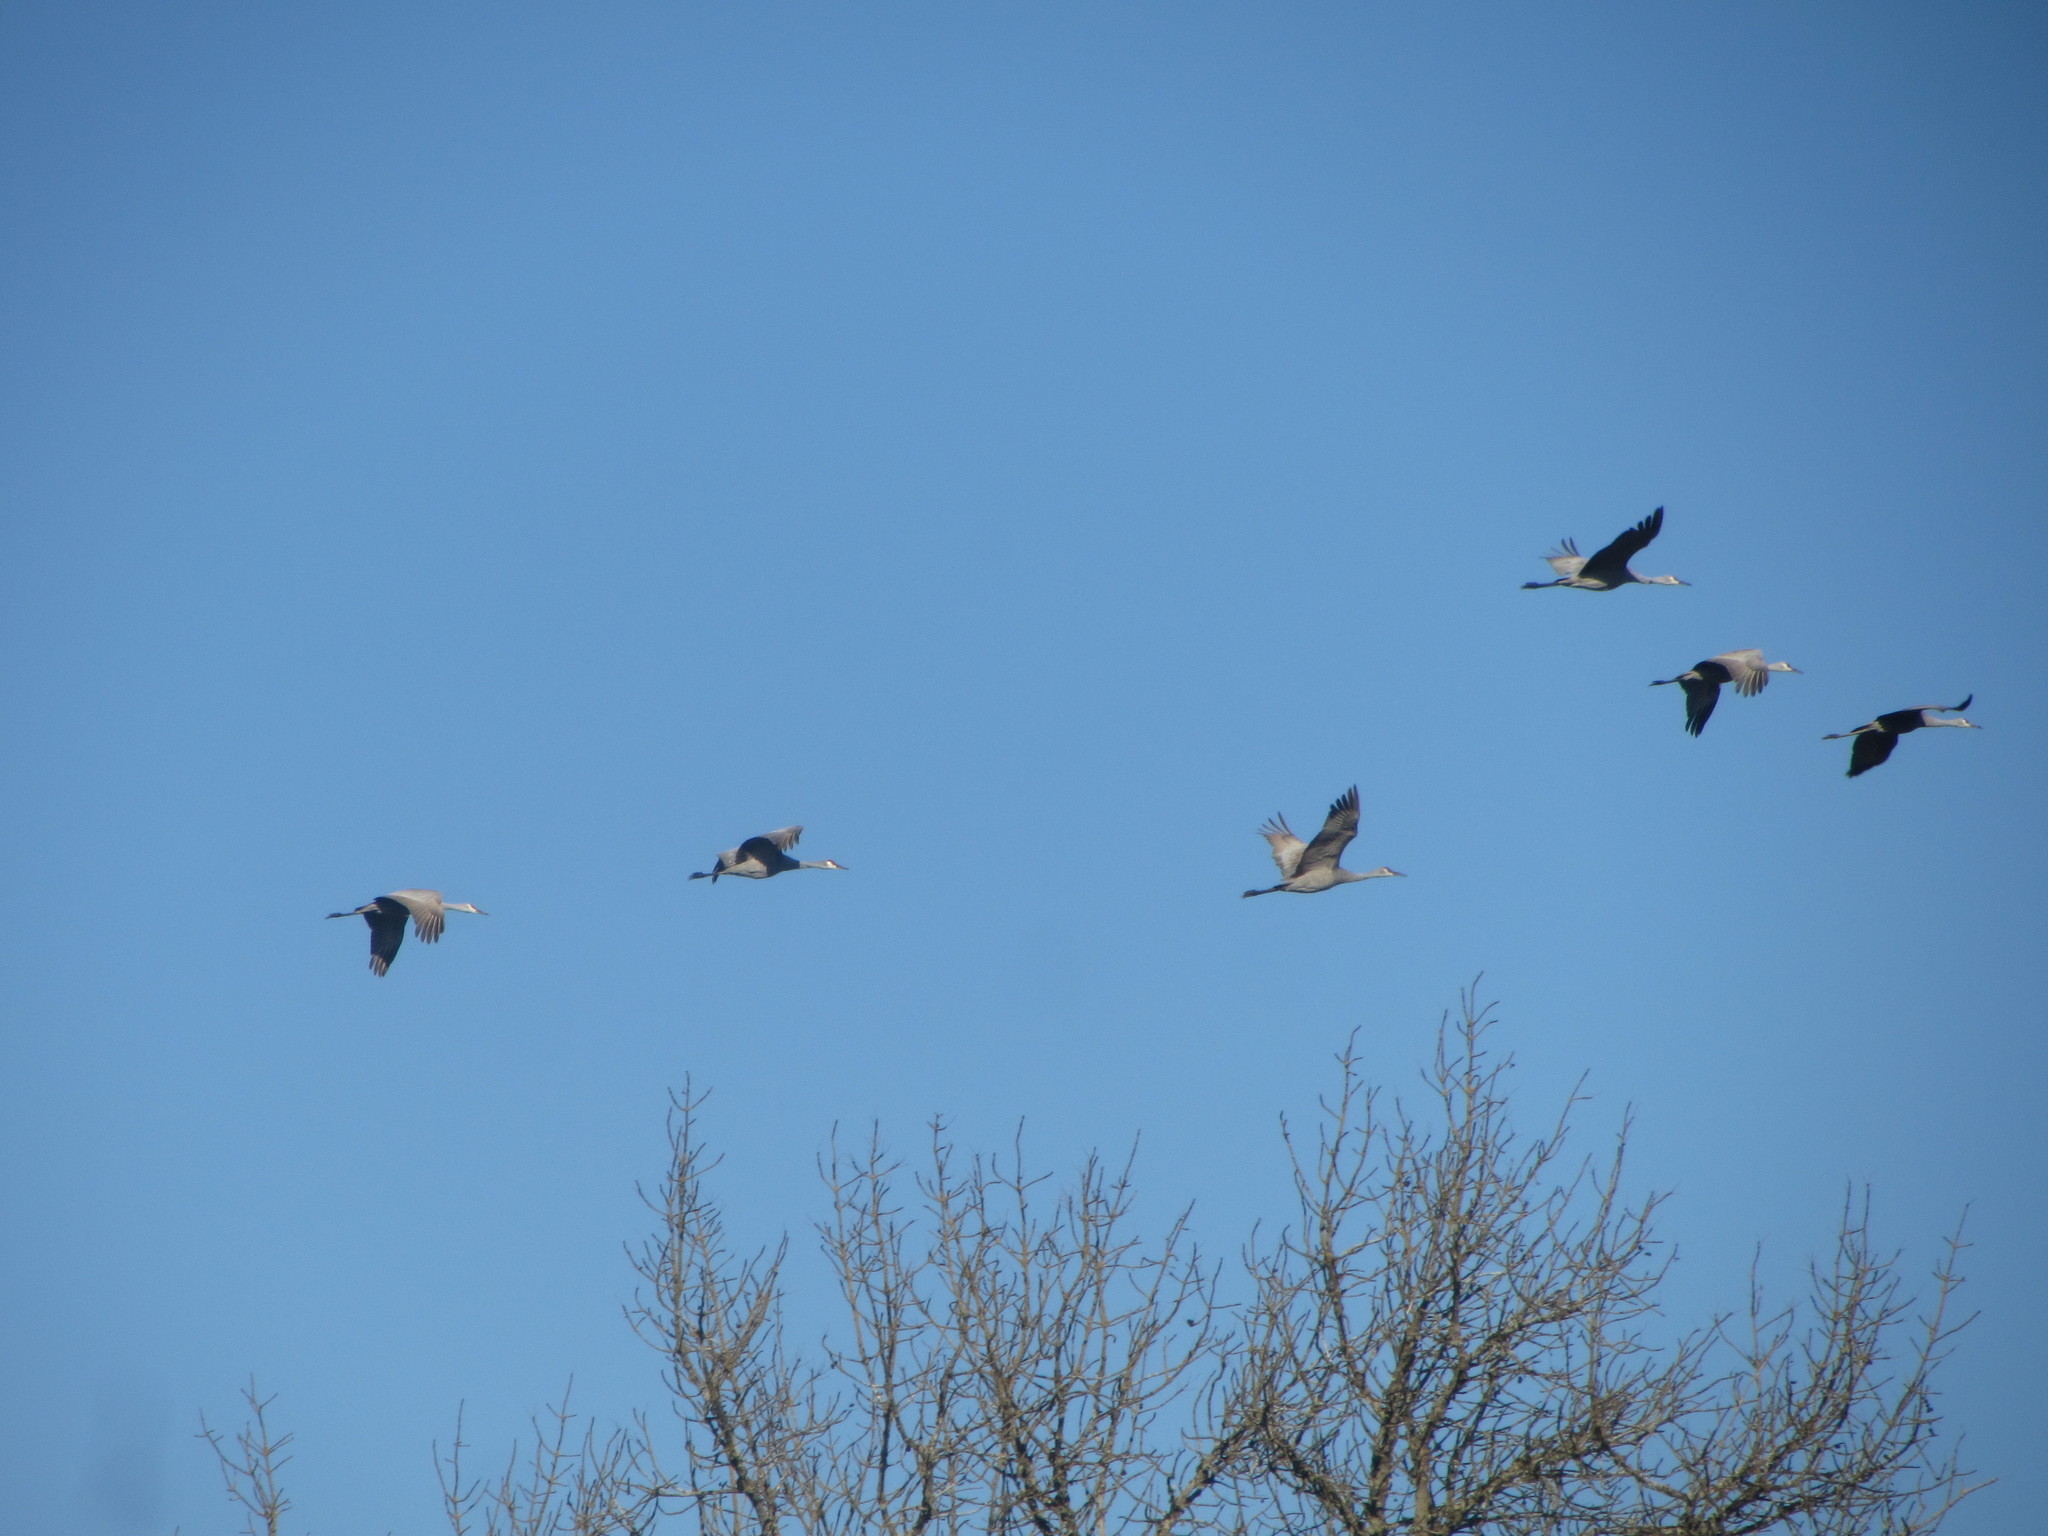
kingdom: Animalia
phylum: Chordata
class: Aves
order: Gruiformes
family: Gruidae
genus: Grus
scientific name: Grus canadensis
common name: Sandhill crane
